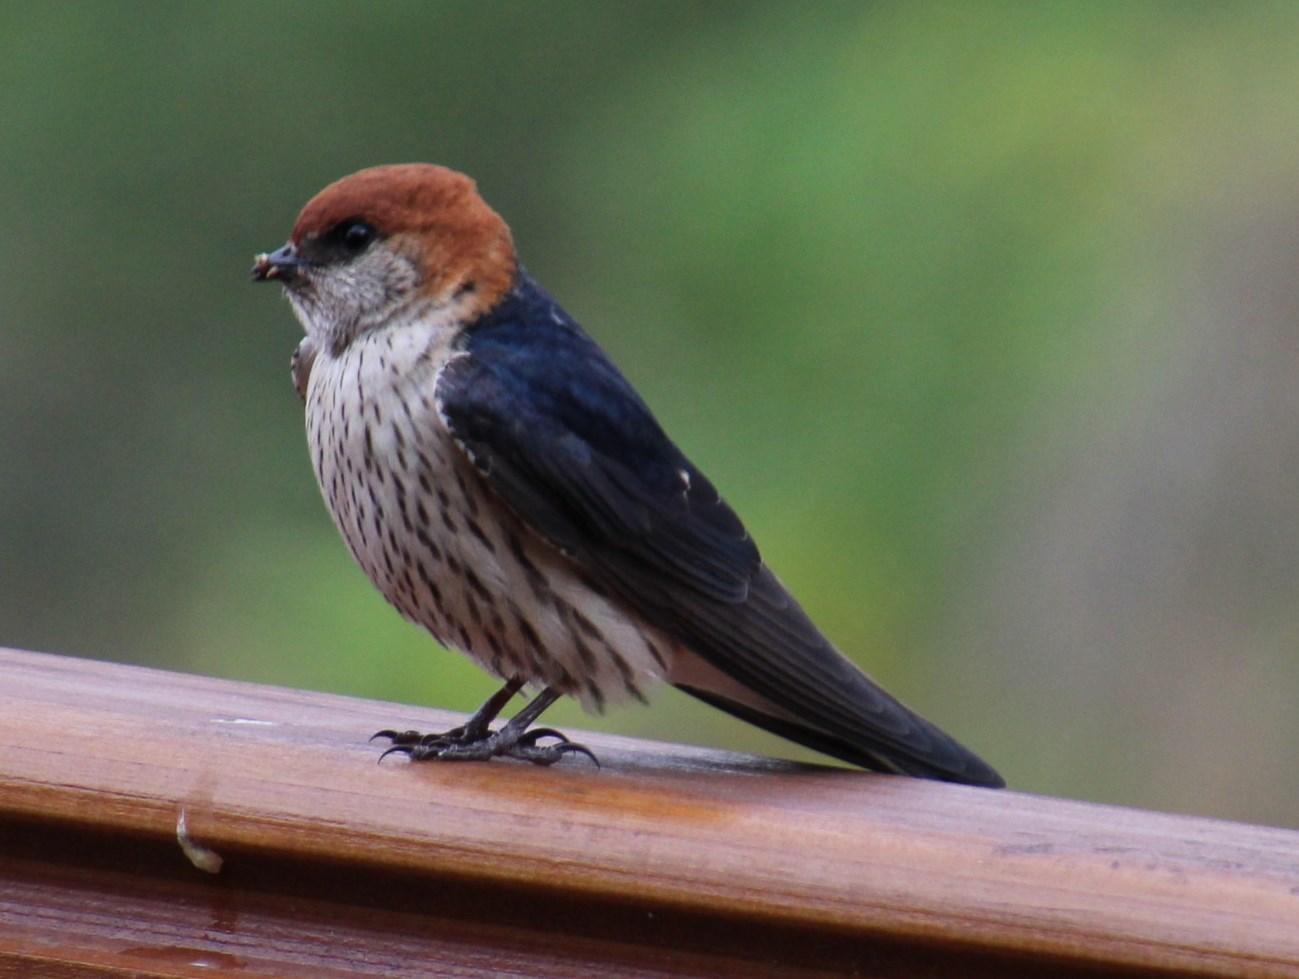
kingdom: Animalia
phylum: Chordata
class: Aves
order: Passeriformes
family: Hirundinidae
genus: Cecropis
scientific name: Cecropis cucullata
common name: Greater striped-swallow
